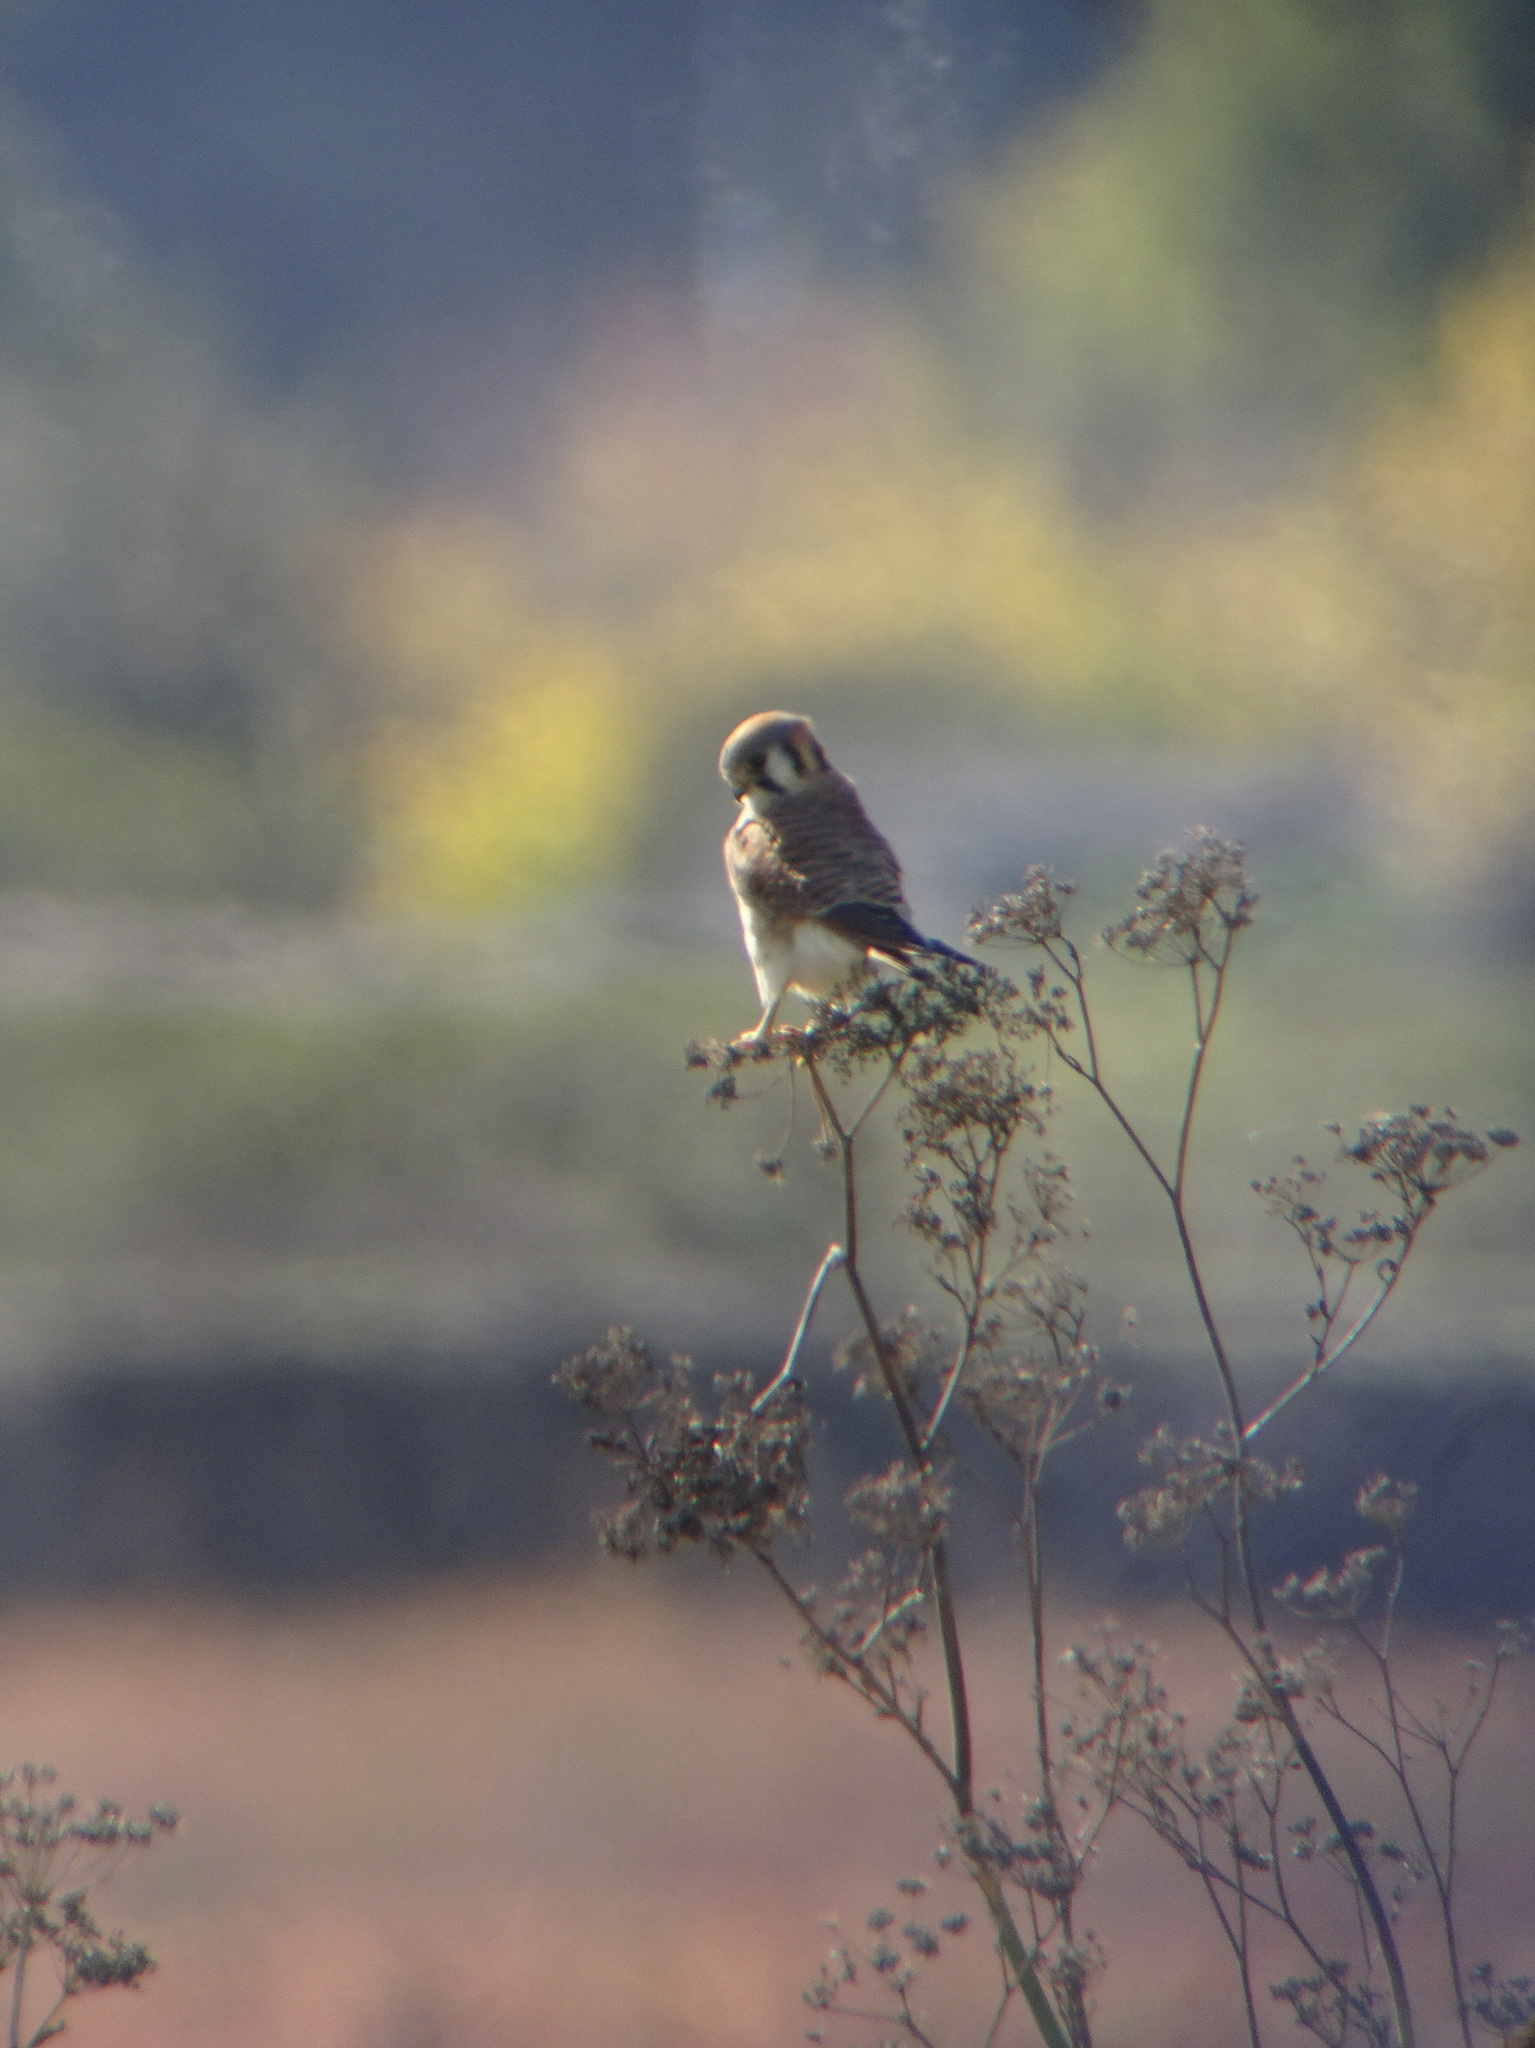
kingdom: Animalia
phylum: Chordata
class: Aves
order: Falconiformes
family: Falconidae
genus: Falco
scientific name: Falco sparverius
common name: American kestrel
